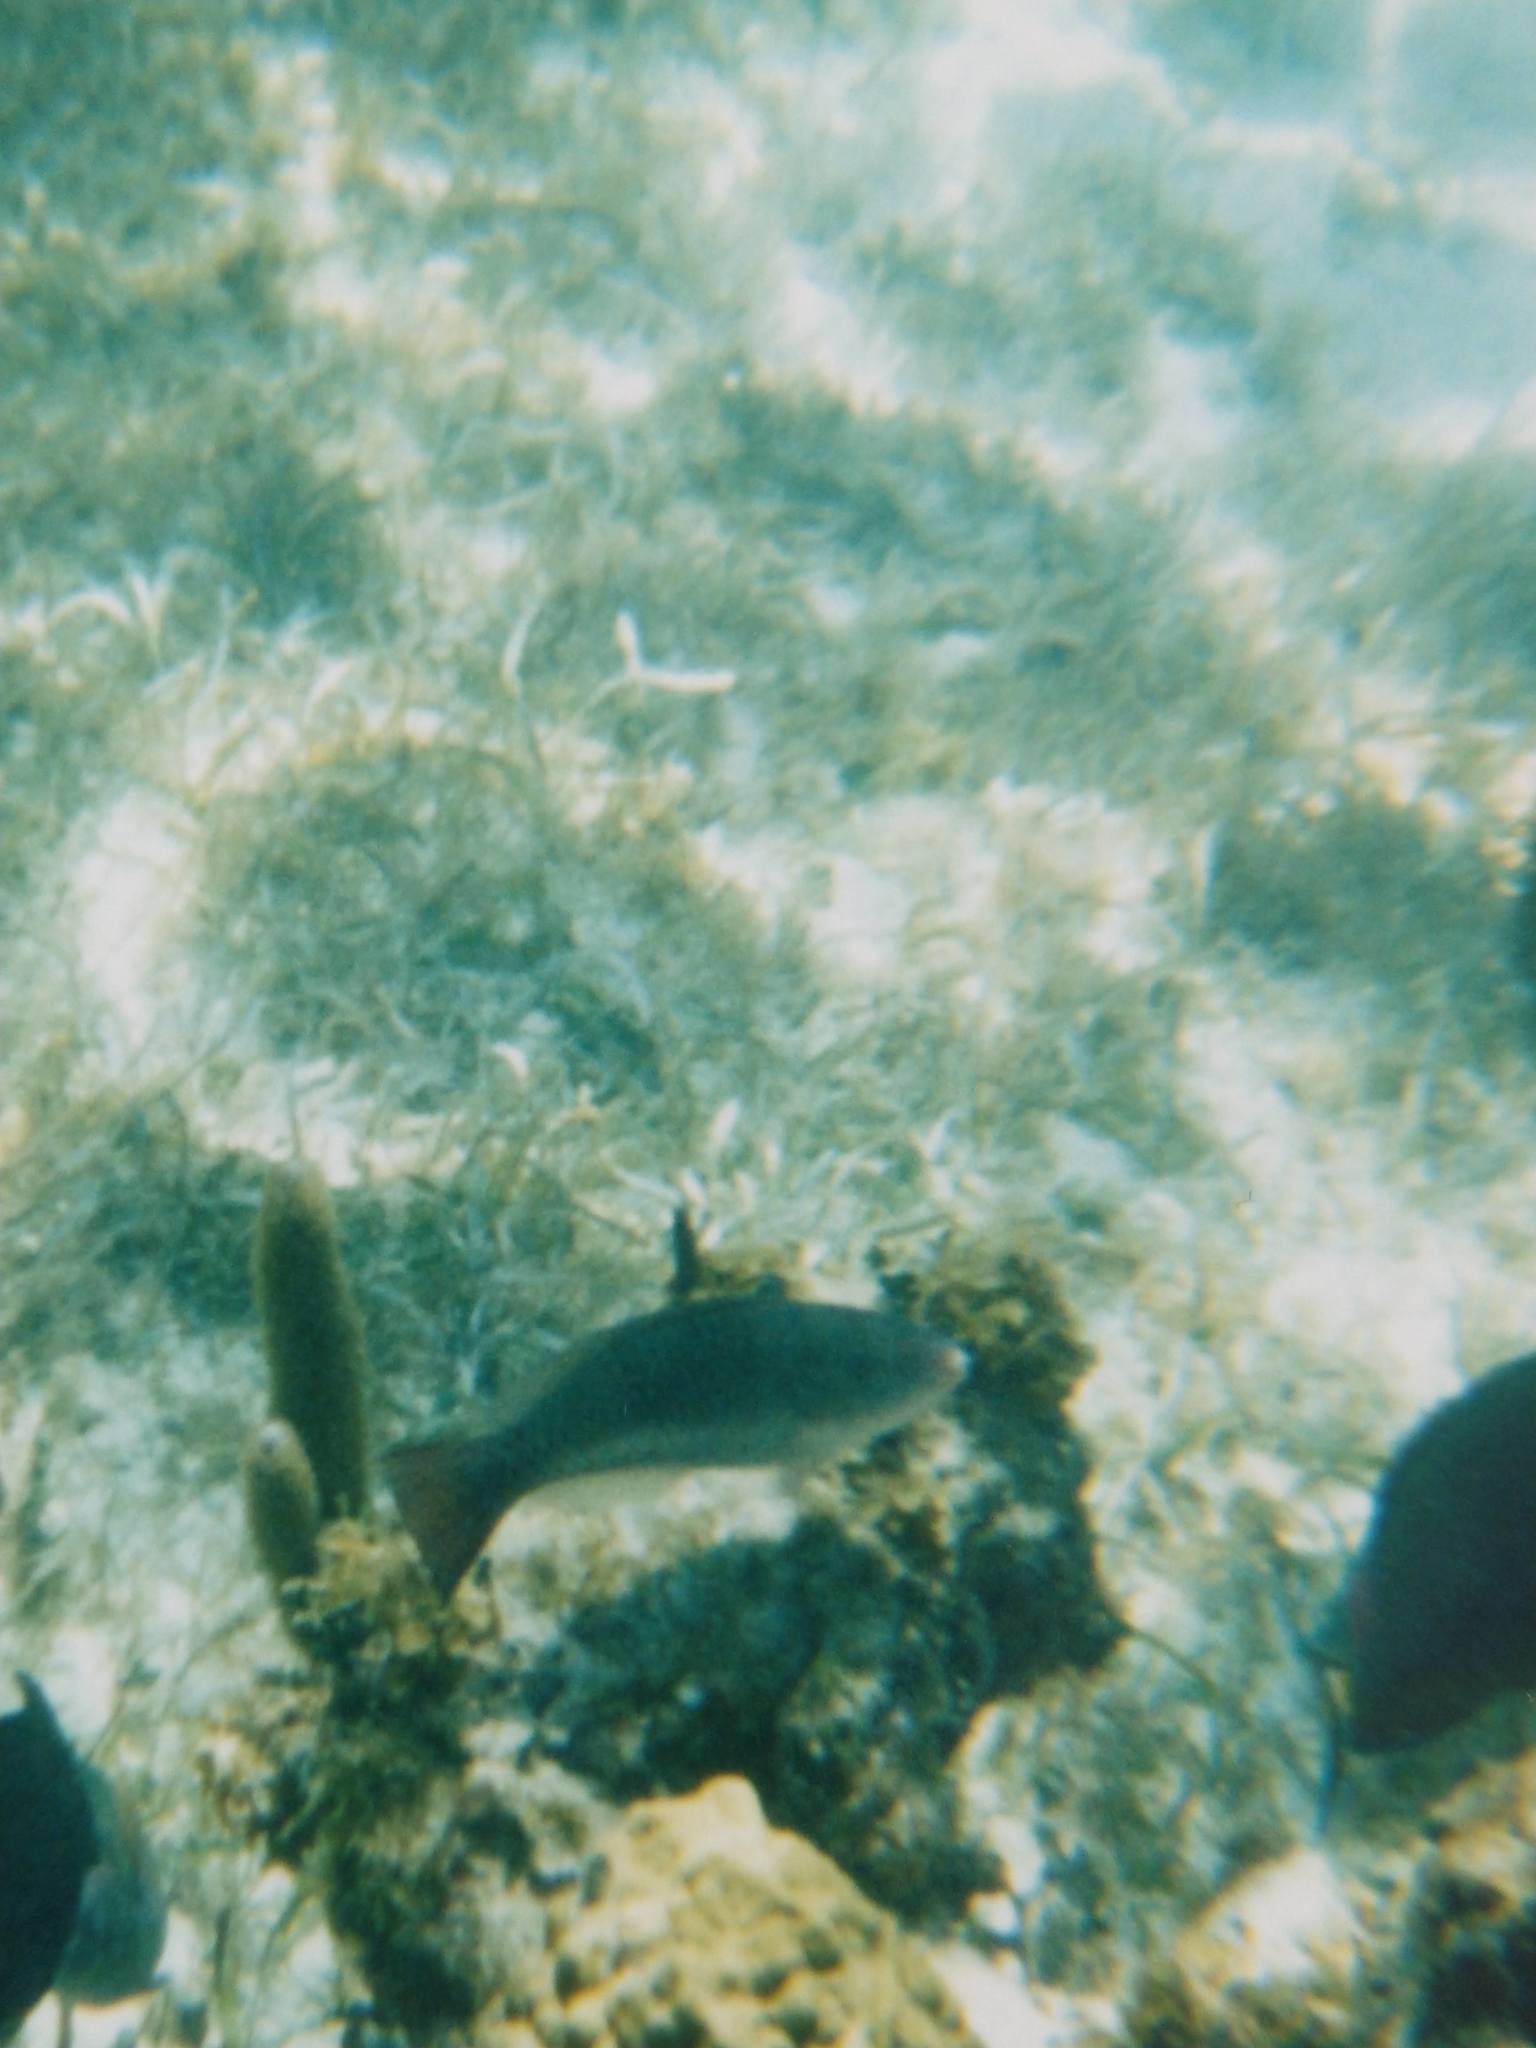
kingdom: Animalia
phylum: Chordata
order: Perciformes
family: Scaridae
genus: Scarus
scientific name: Scarus vetula
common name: Queen parrotfish
